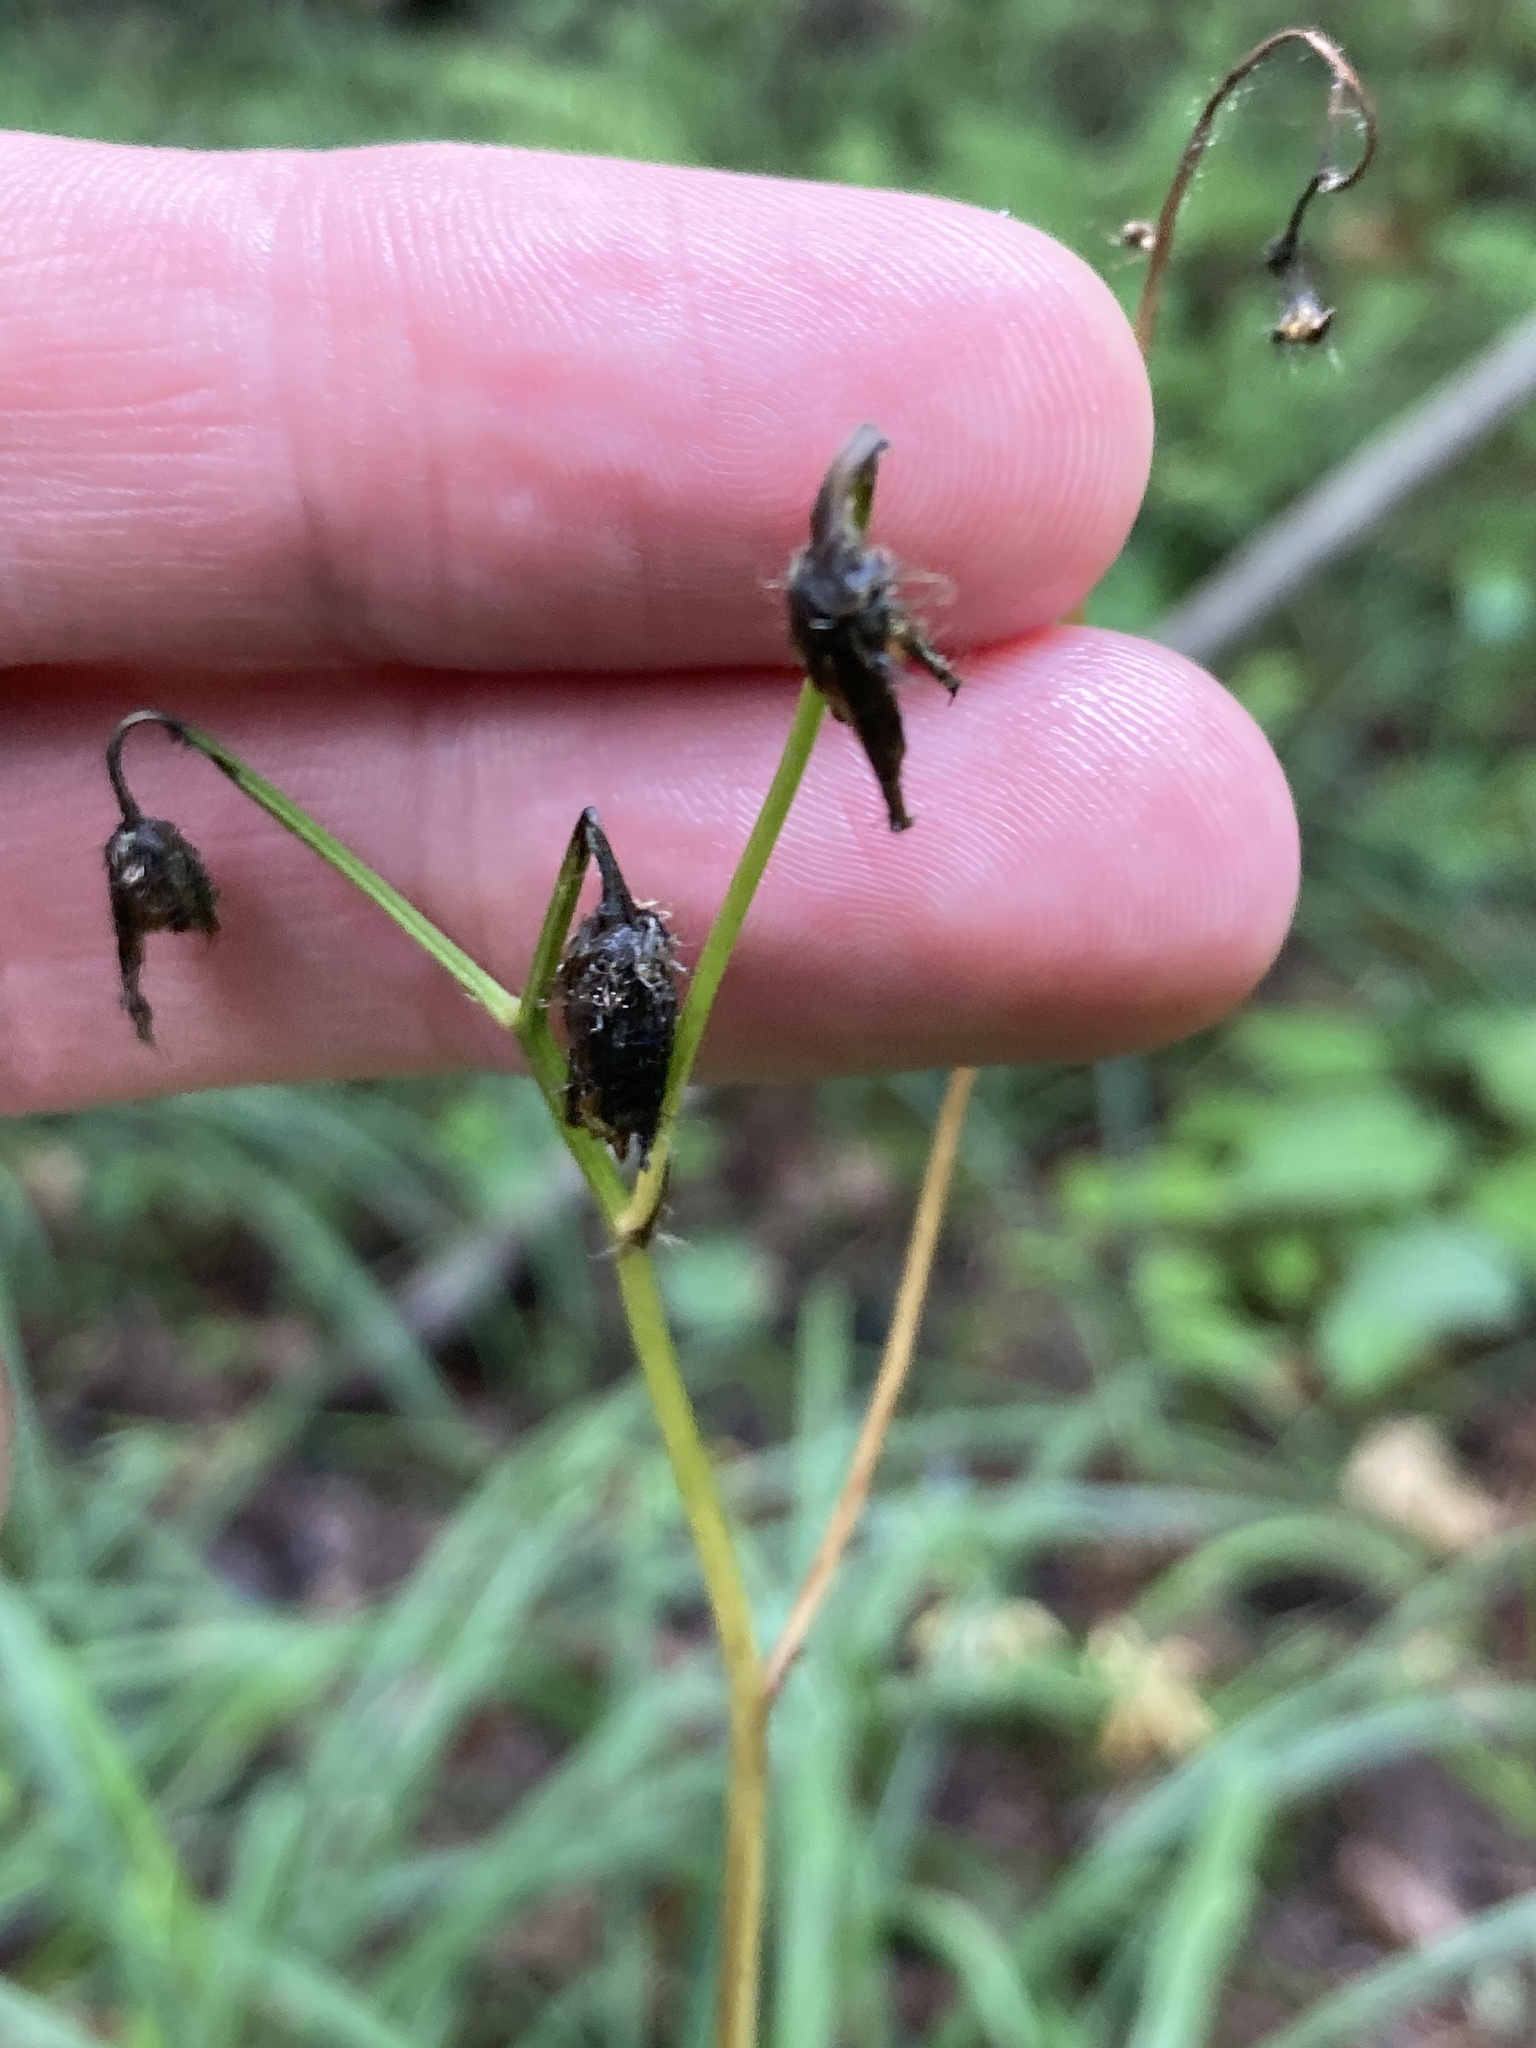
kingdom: Plantae
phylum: Tracheophyta
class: Magnoliopsida
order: Asterales
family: Asteraceae
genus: Crepis
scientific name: Crepis paludosa
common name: Marsh hawk's-beard
